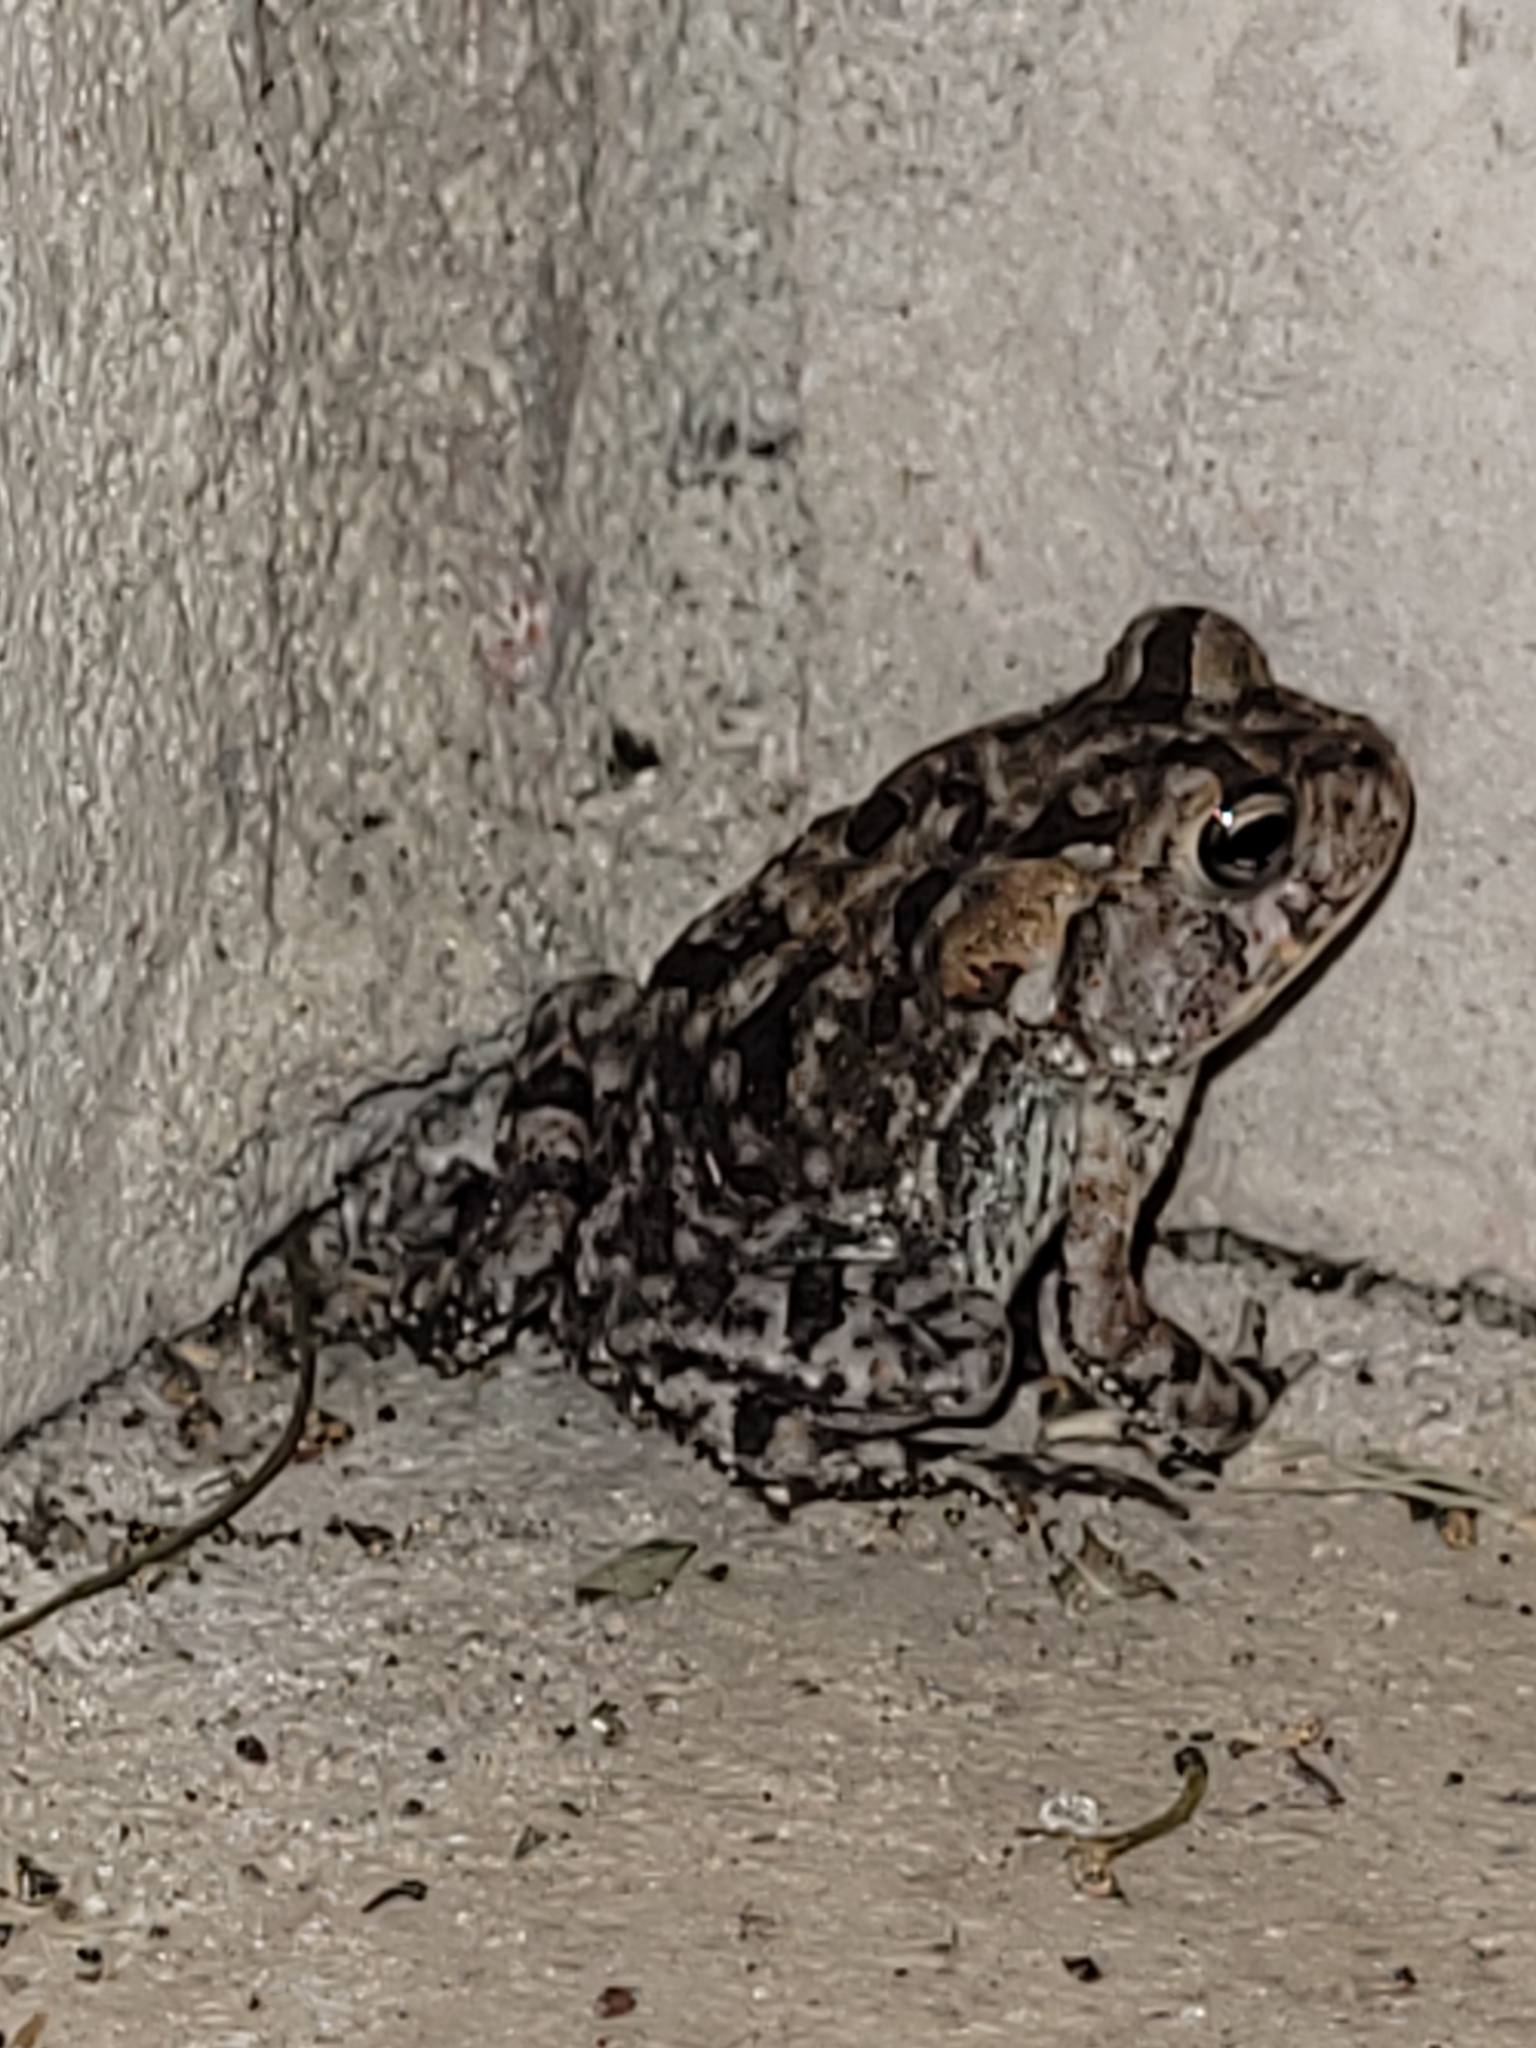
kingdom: Animalia
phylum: Chordata
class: Amphibia
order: Anura
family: Bufonidae
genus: Anaxyrus
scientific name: Anaxyrus terrestris
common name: Southern toad
